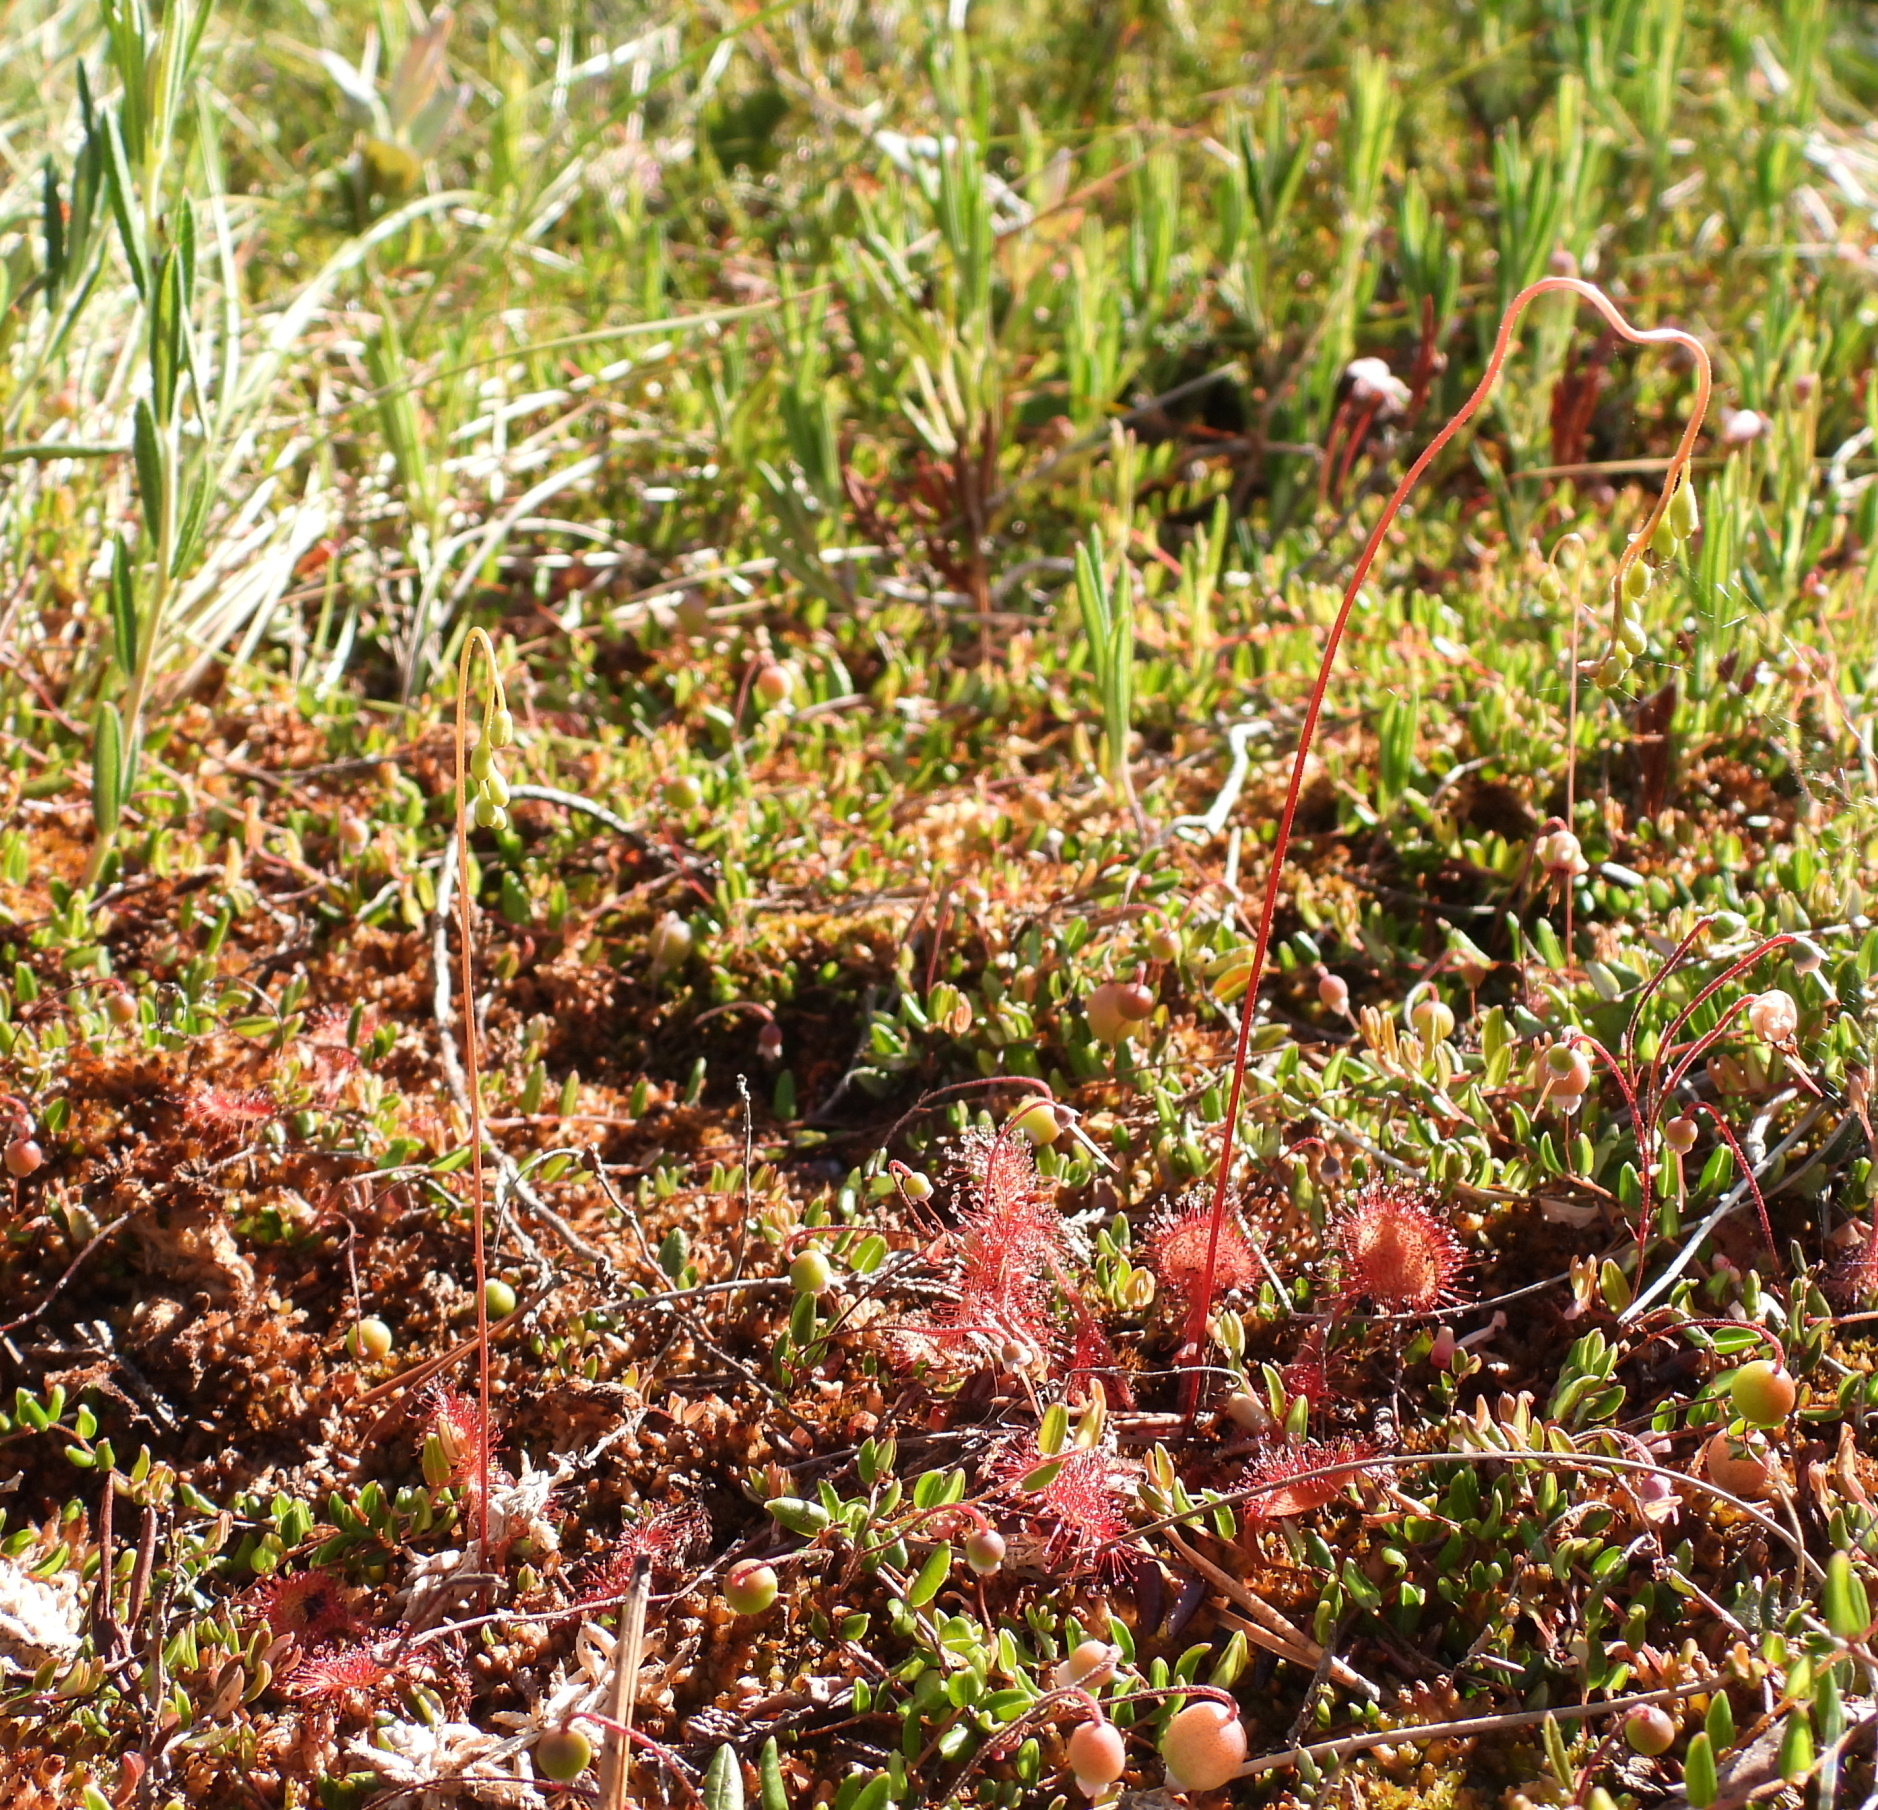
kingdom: Plantae
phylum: Tracheophyta
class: Magnoliopsida
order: Caryophyllales
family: Droseraceae
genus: Drosera
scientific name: Drosera rotundifolia
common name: Round-leaved sundew
